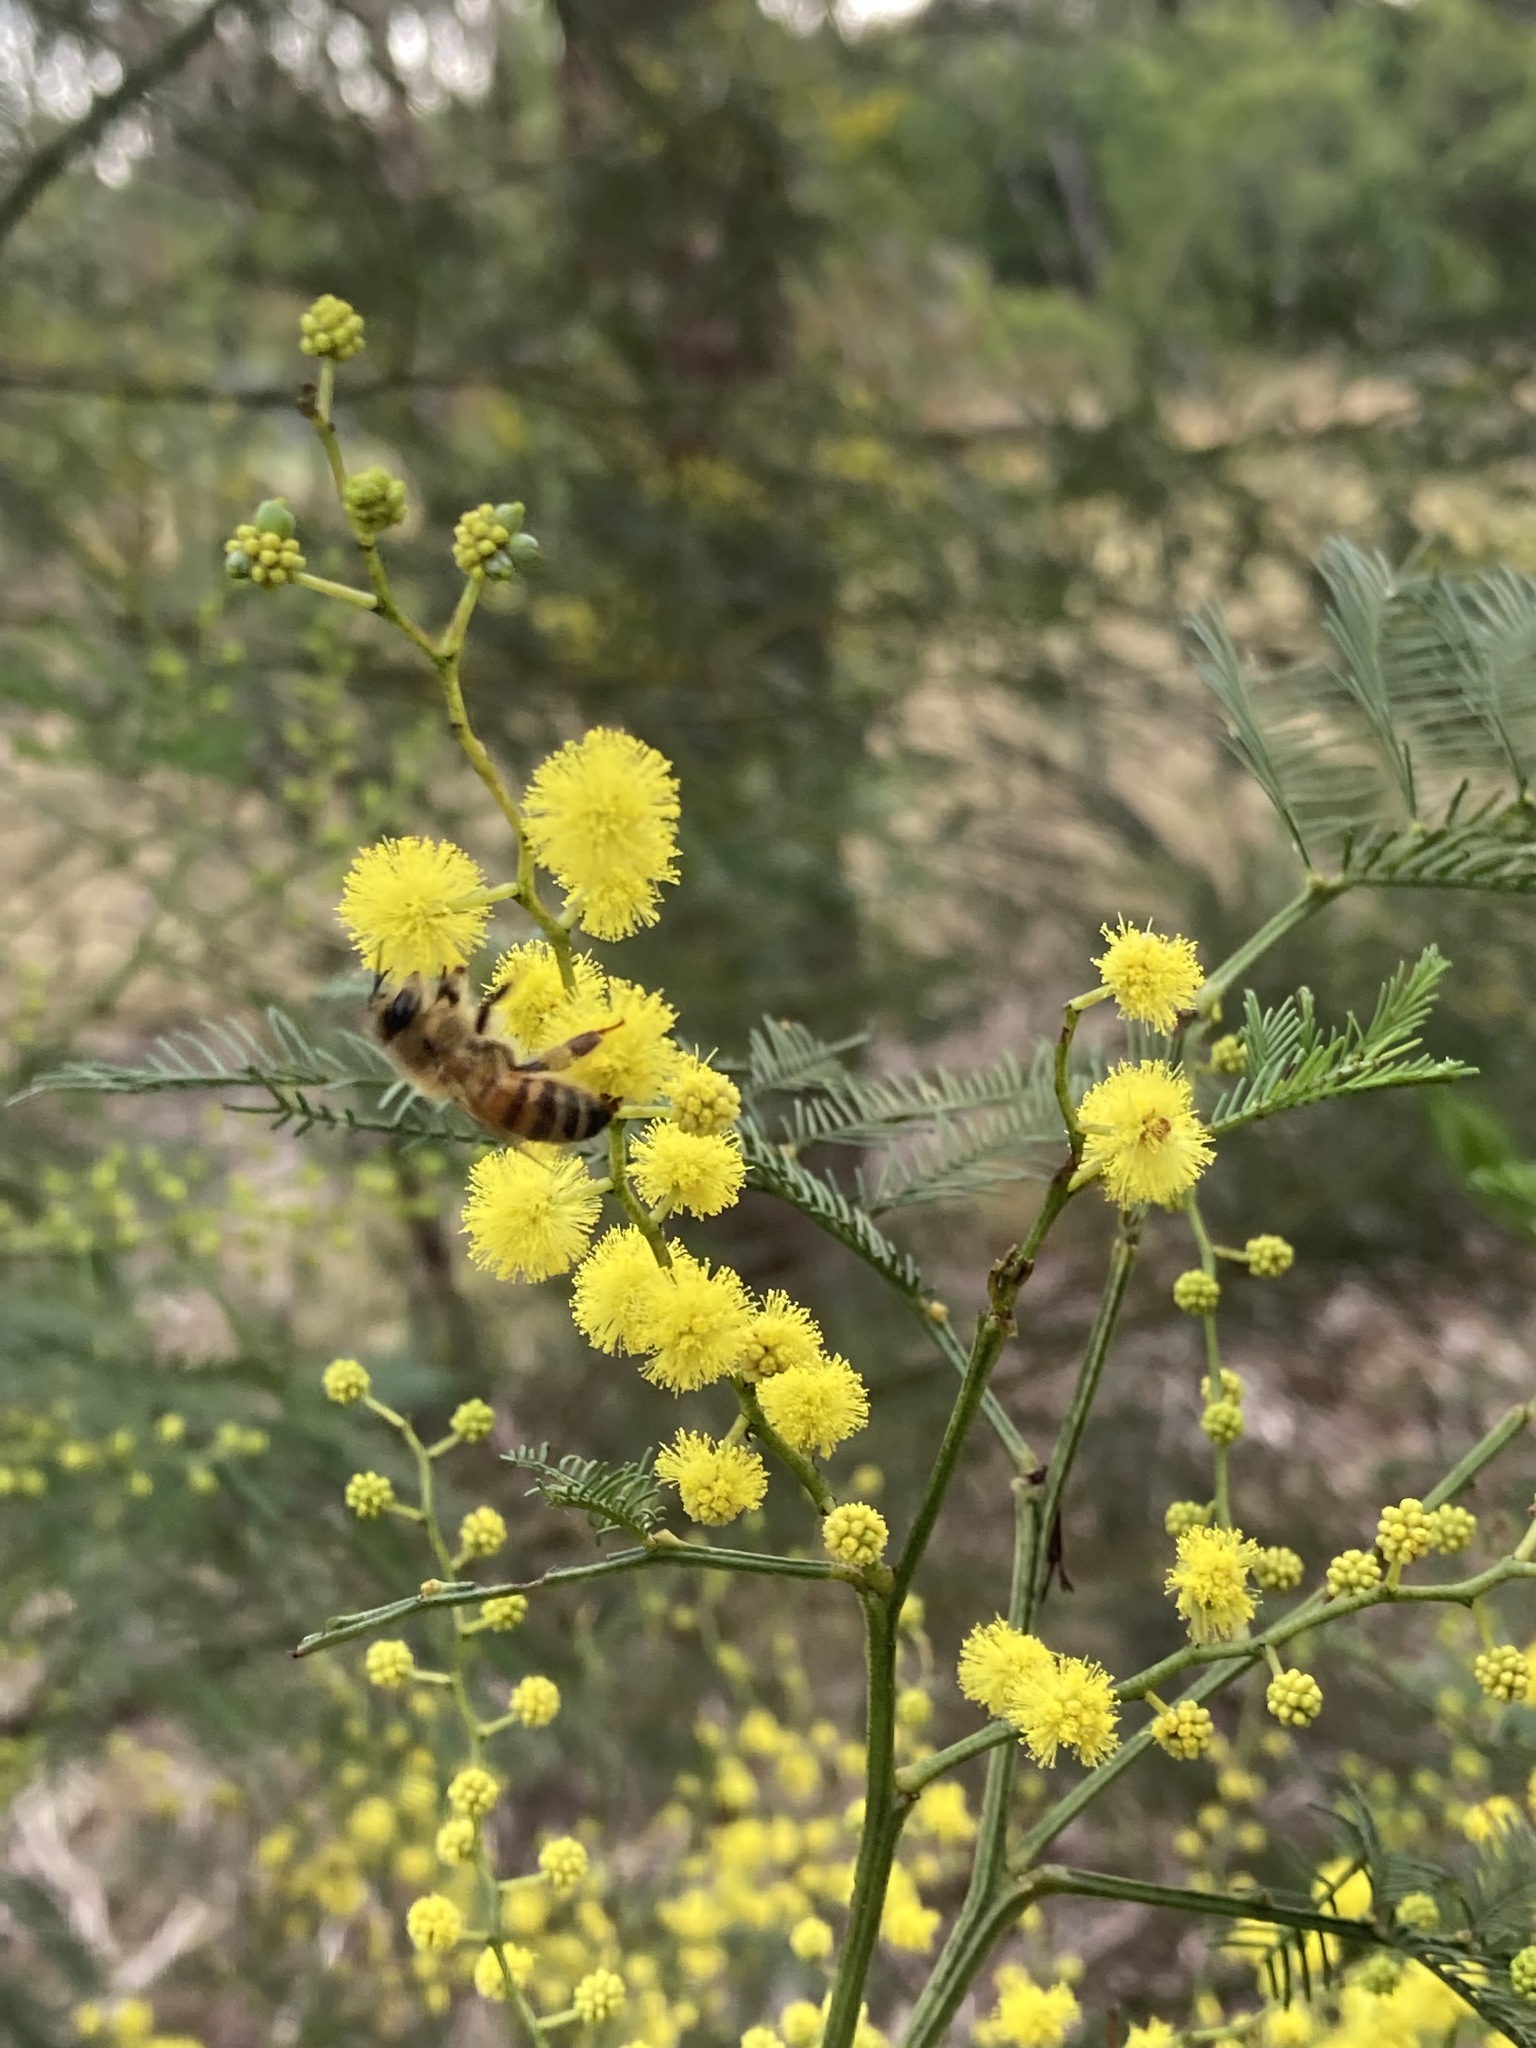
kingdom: Animalia
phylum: Arthropoda
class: Insecta
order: Hymenoptera
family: Apidae
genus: Apis
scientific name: Apis mellifera
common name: Honey bee
